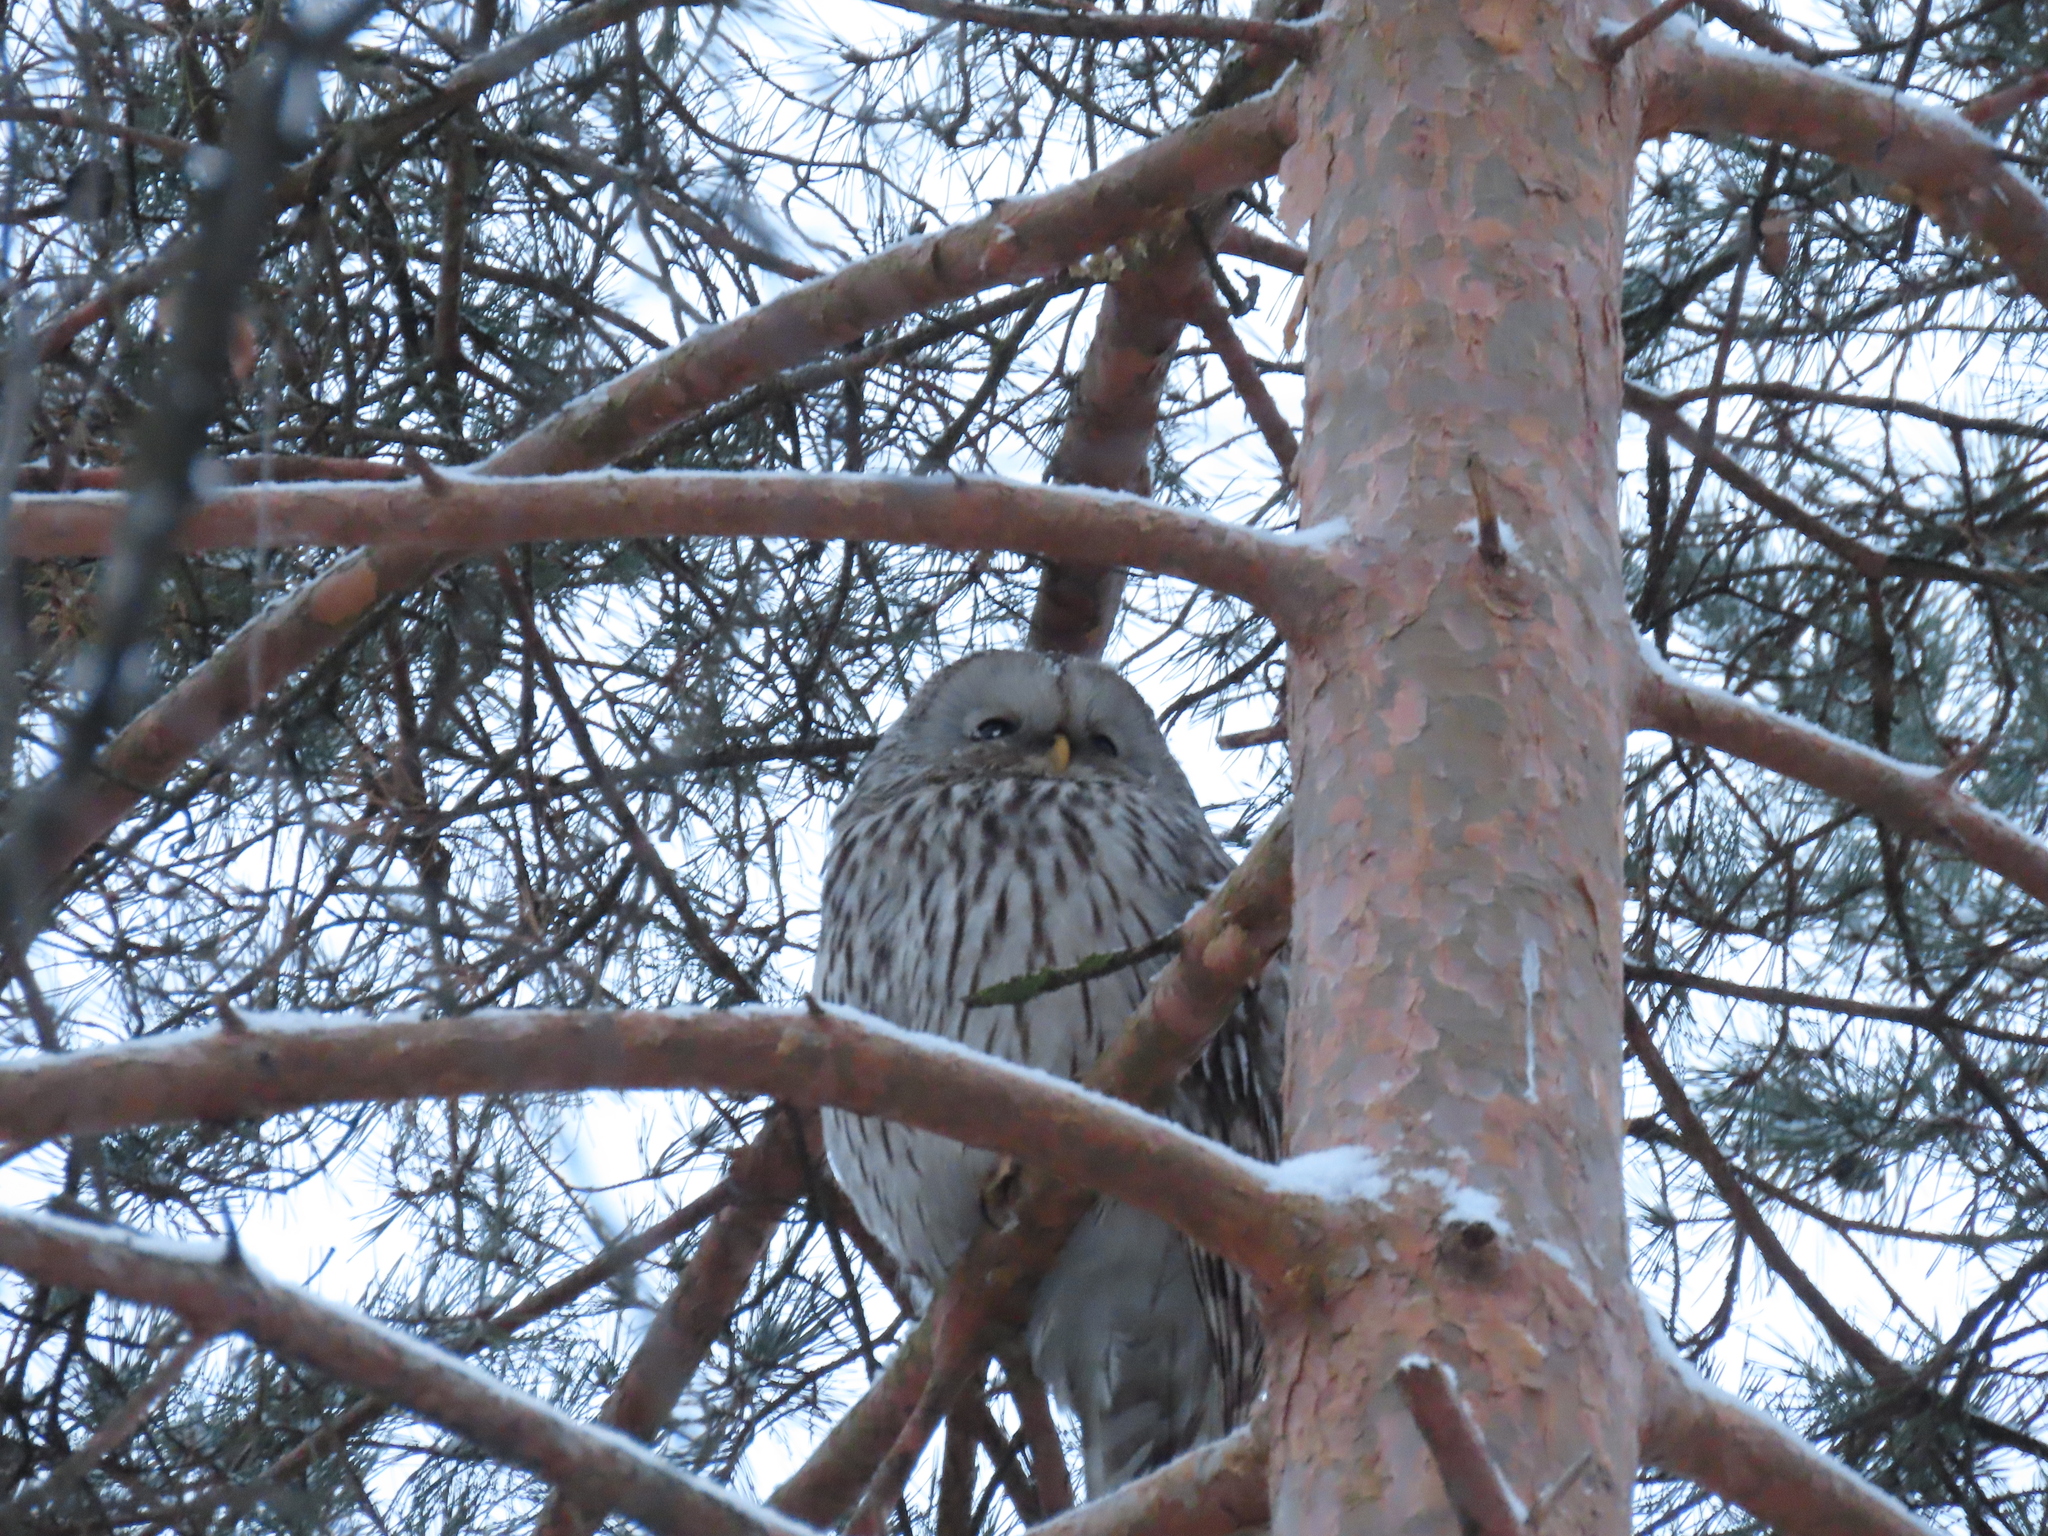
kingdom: Animalia
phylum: Chordata
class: Aves
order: Strigiformes
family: Strigidae
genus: Strix
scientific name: Strix uralensis
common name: Ural owl
